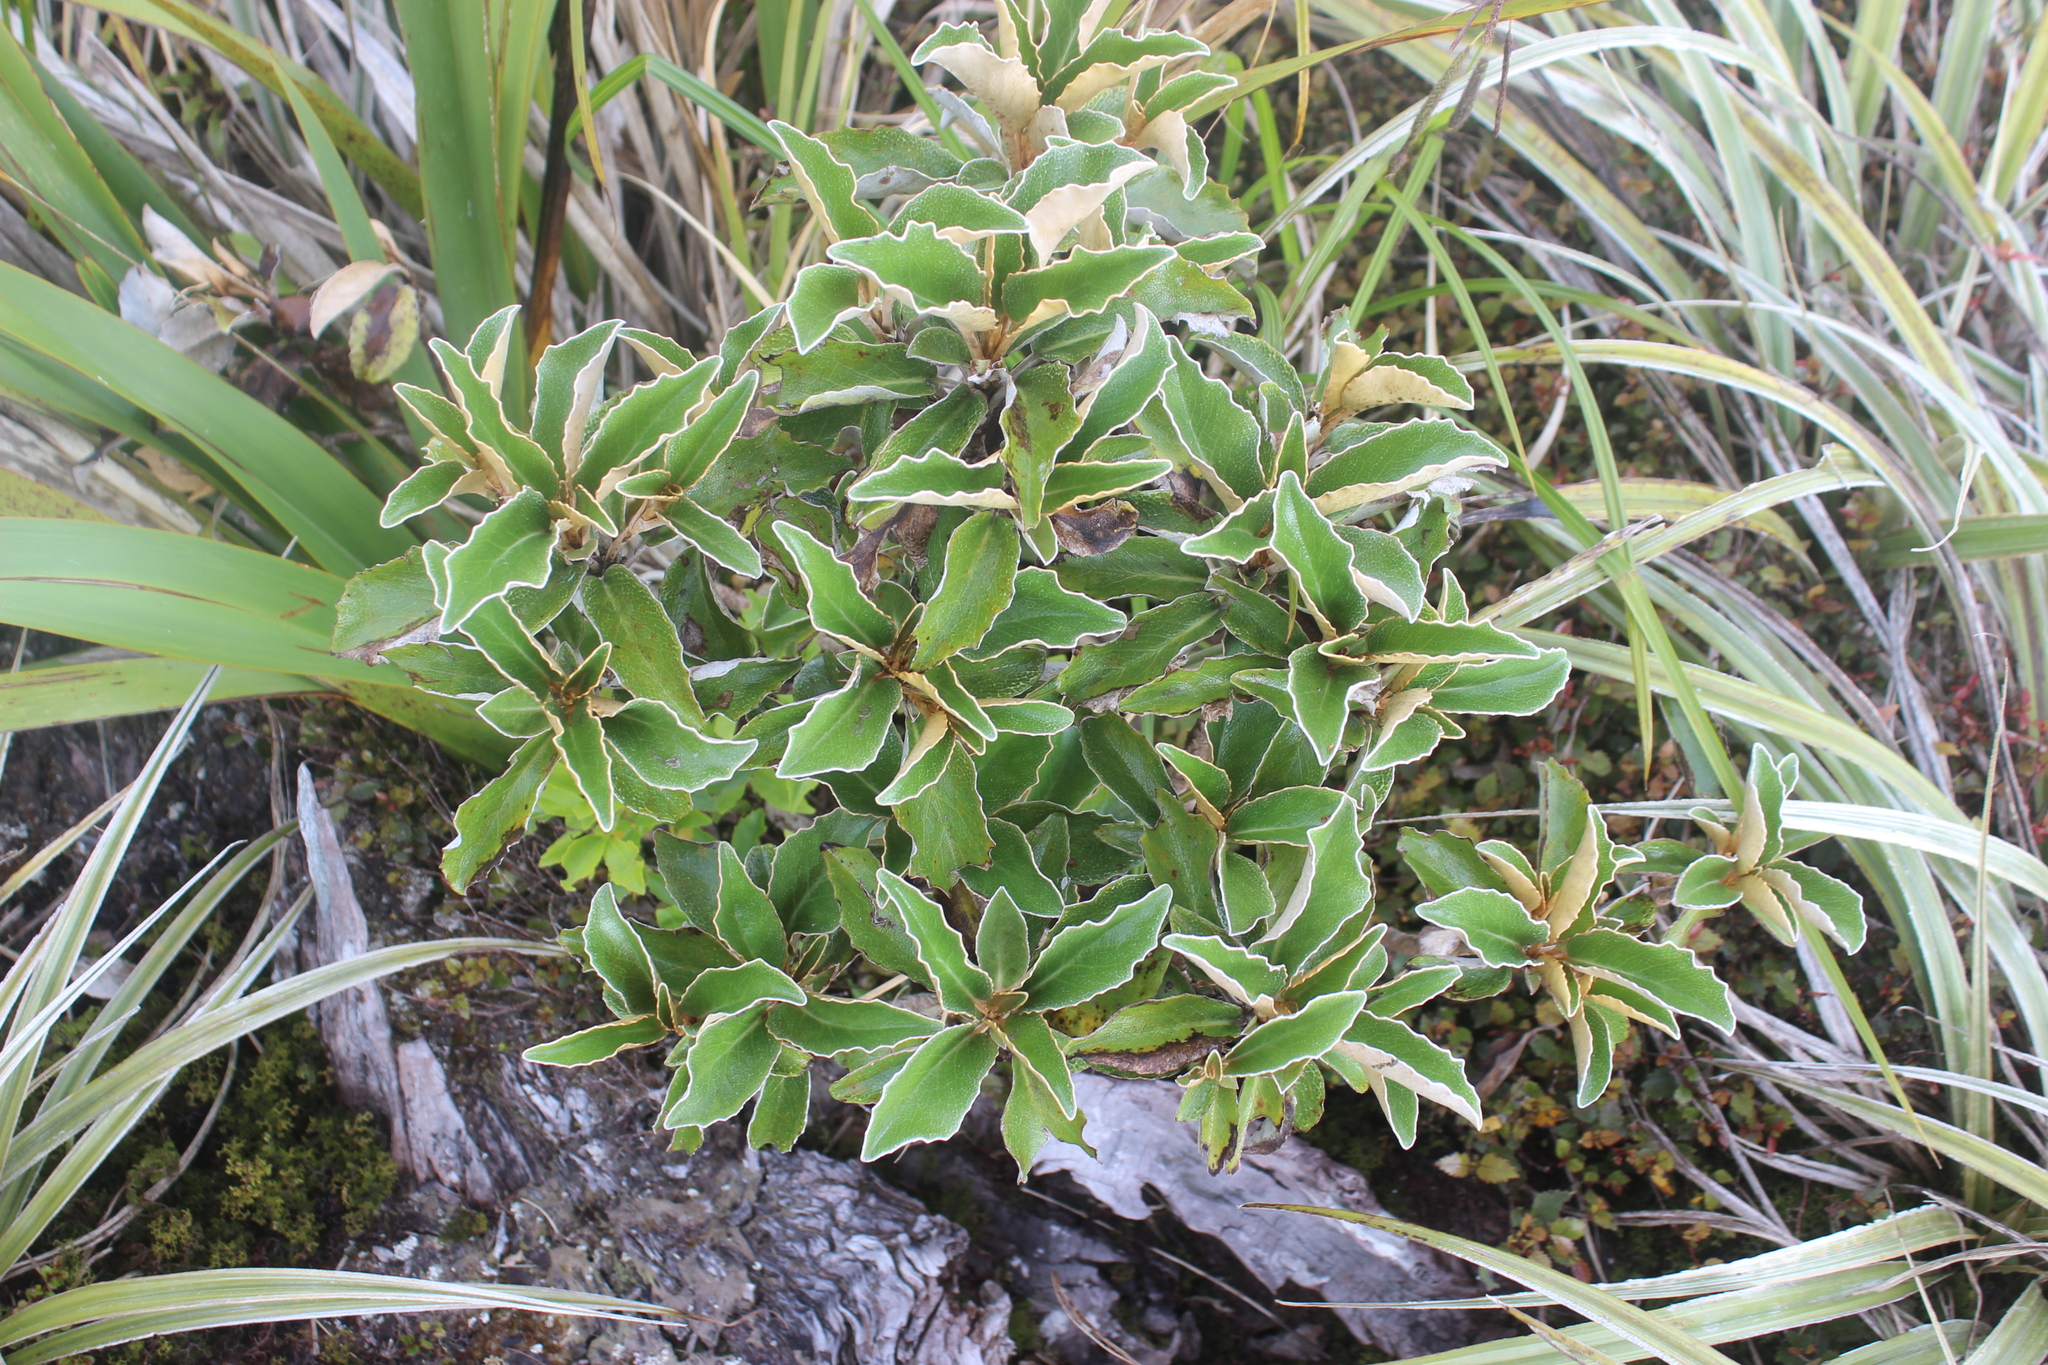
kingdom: Plantae
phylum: Tracheophyta
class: Magnoliopsida
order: Asterales
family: Asteraceae
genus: Olearia
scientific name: Olearia arborescens
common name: Glossy tree daisy
